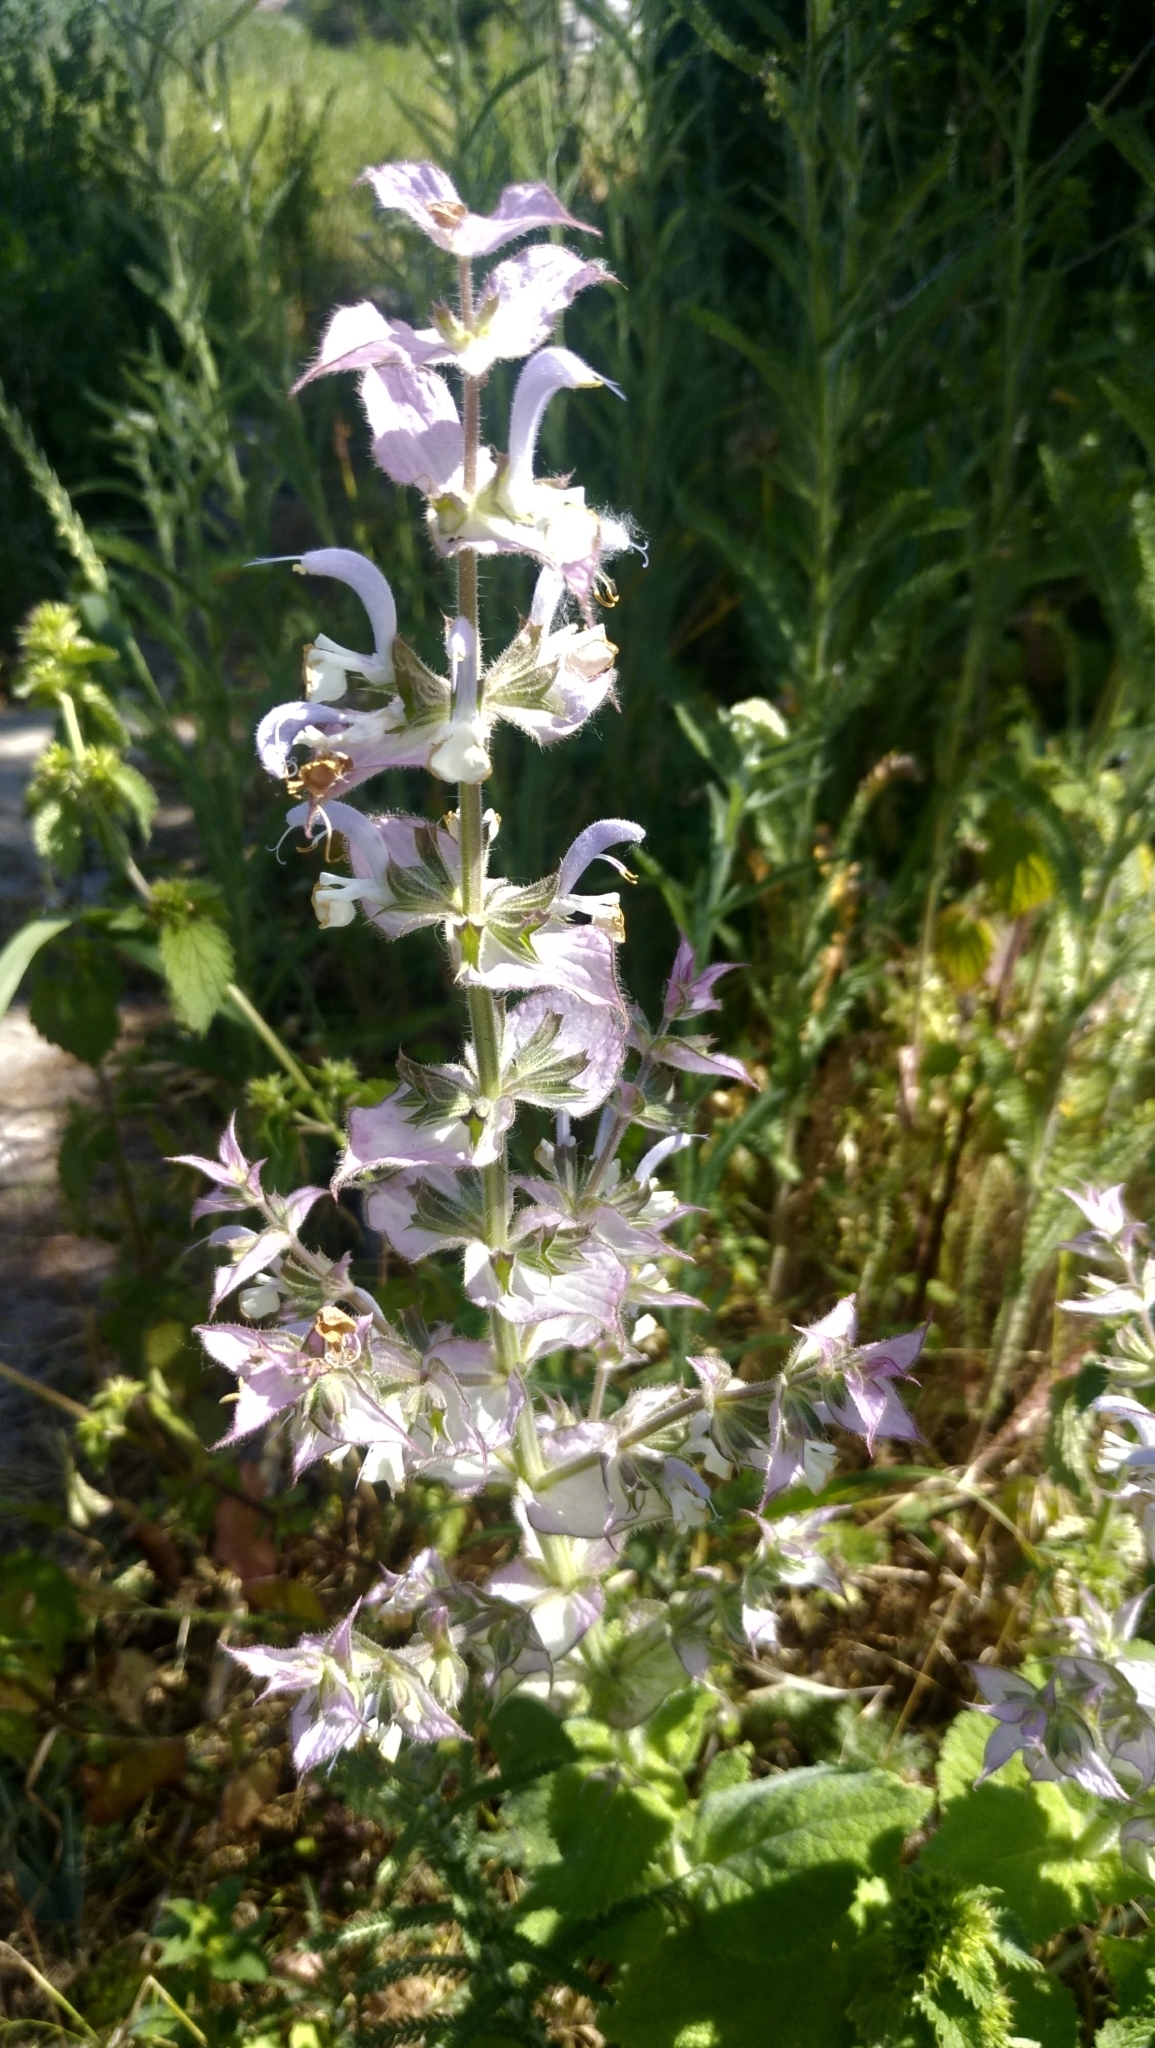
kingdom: Plantae
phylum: Tracheophyta
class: Magnoliopsida
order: Lamiales
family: Lamiaceae
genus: Salvia
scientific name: Salvia sclarea
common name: Clary
